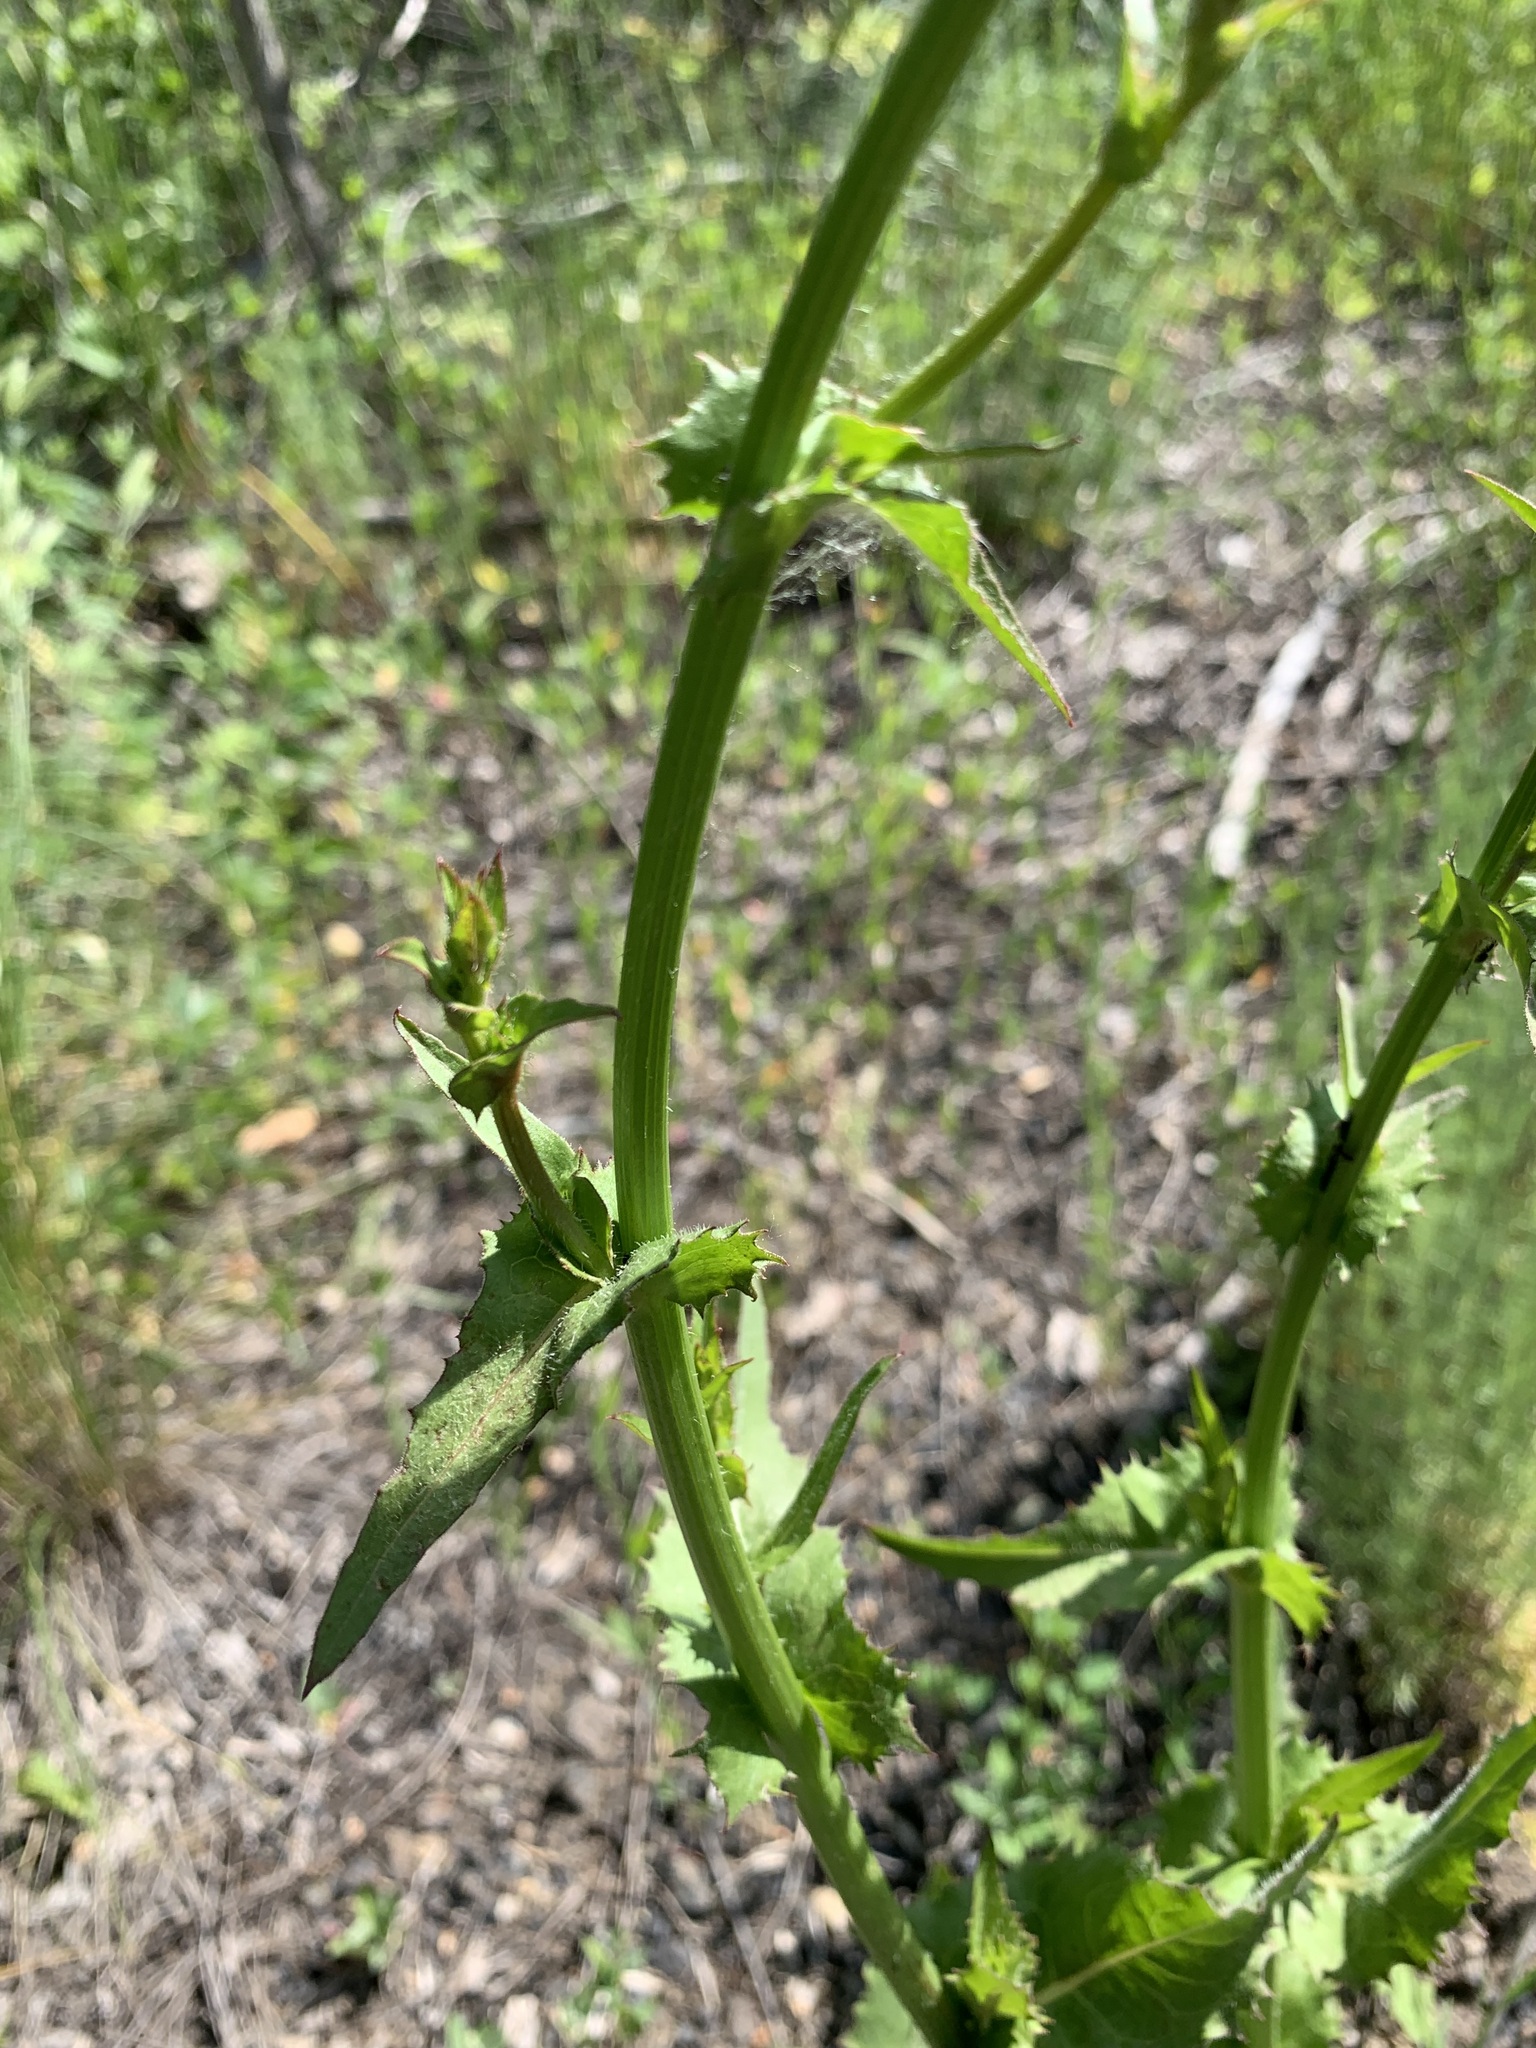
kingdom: Plantae
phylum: Tracheophyta
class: Magnoliopsida
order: Asterales
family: Asteraceae
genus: Cichorium
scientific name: Cichorium intybus
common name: Chicory
